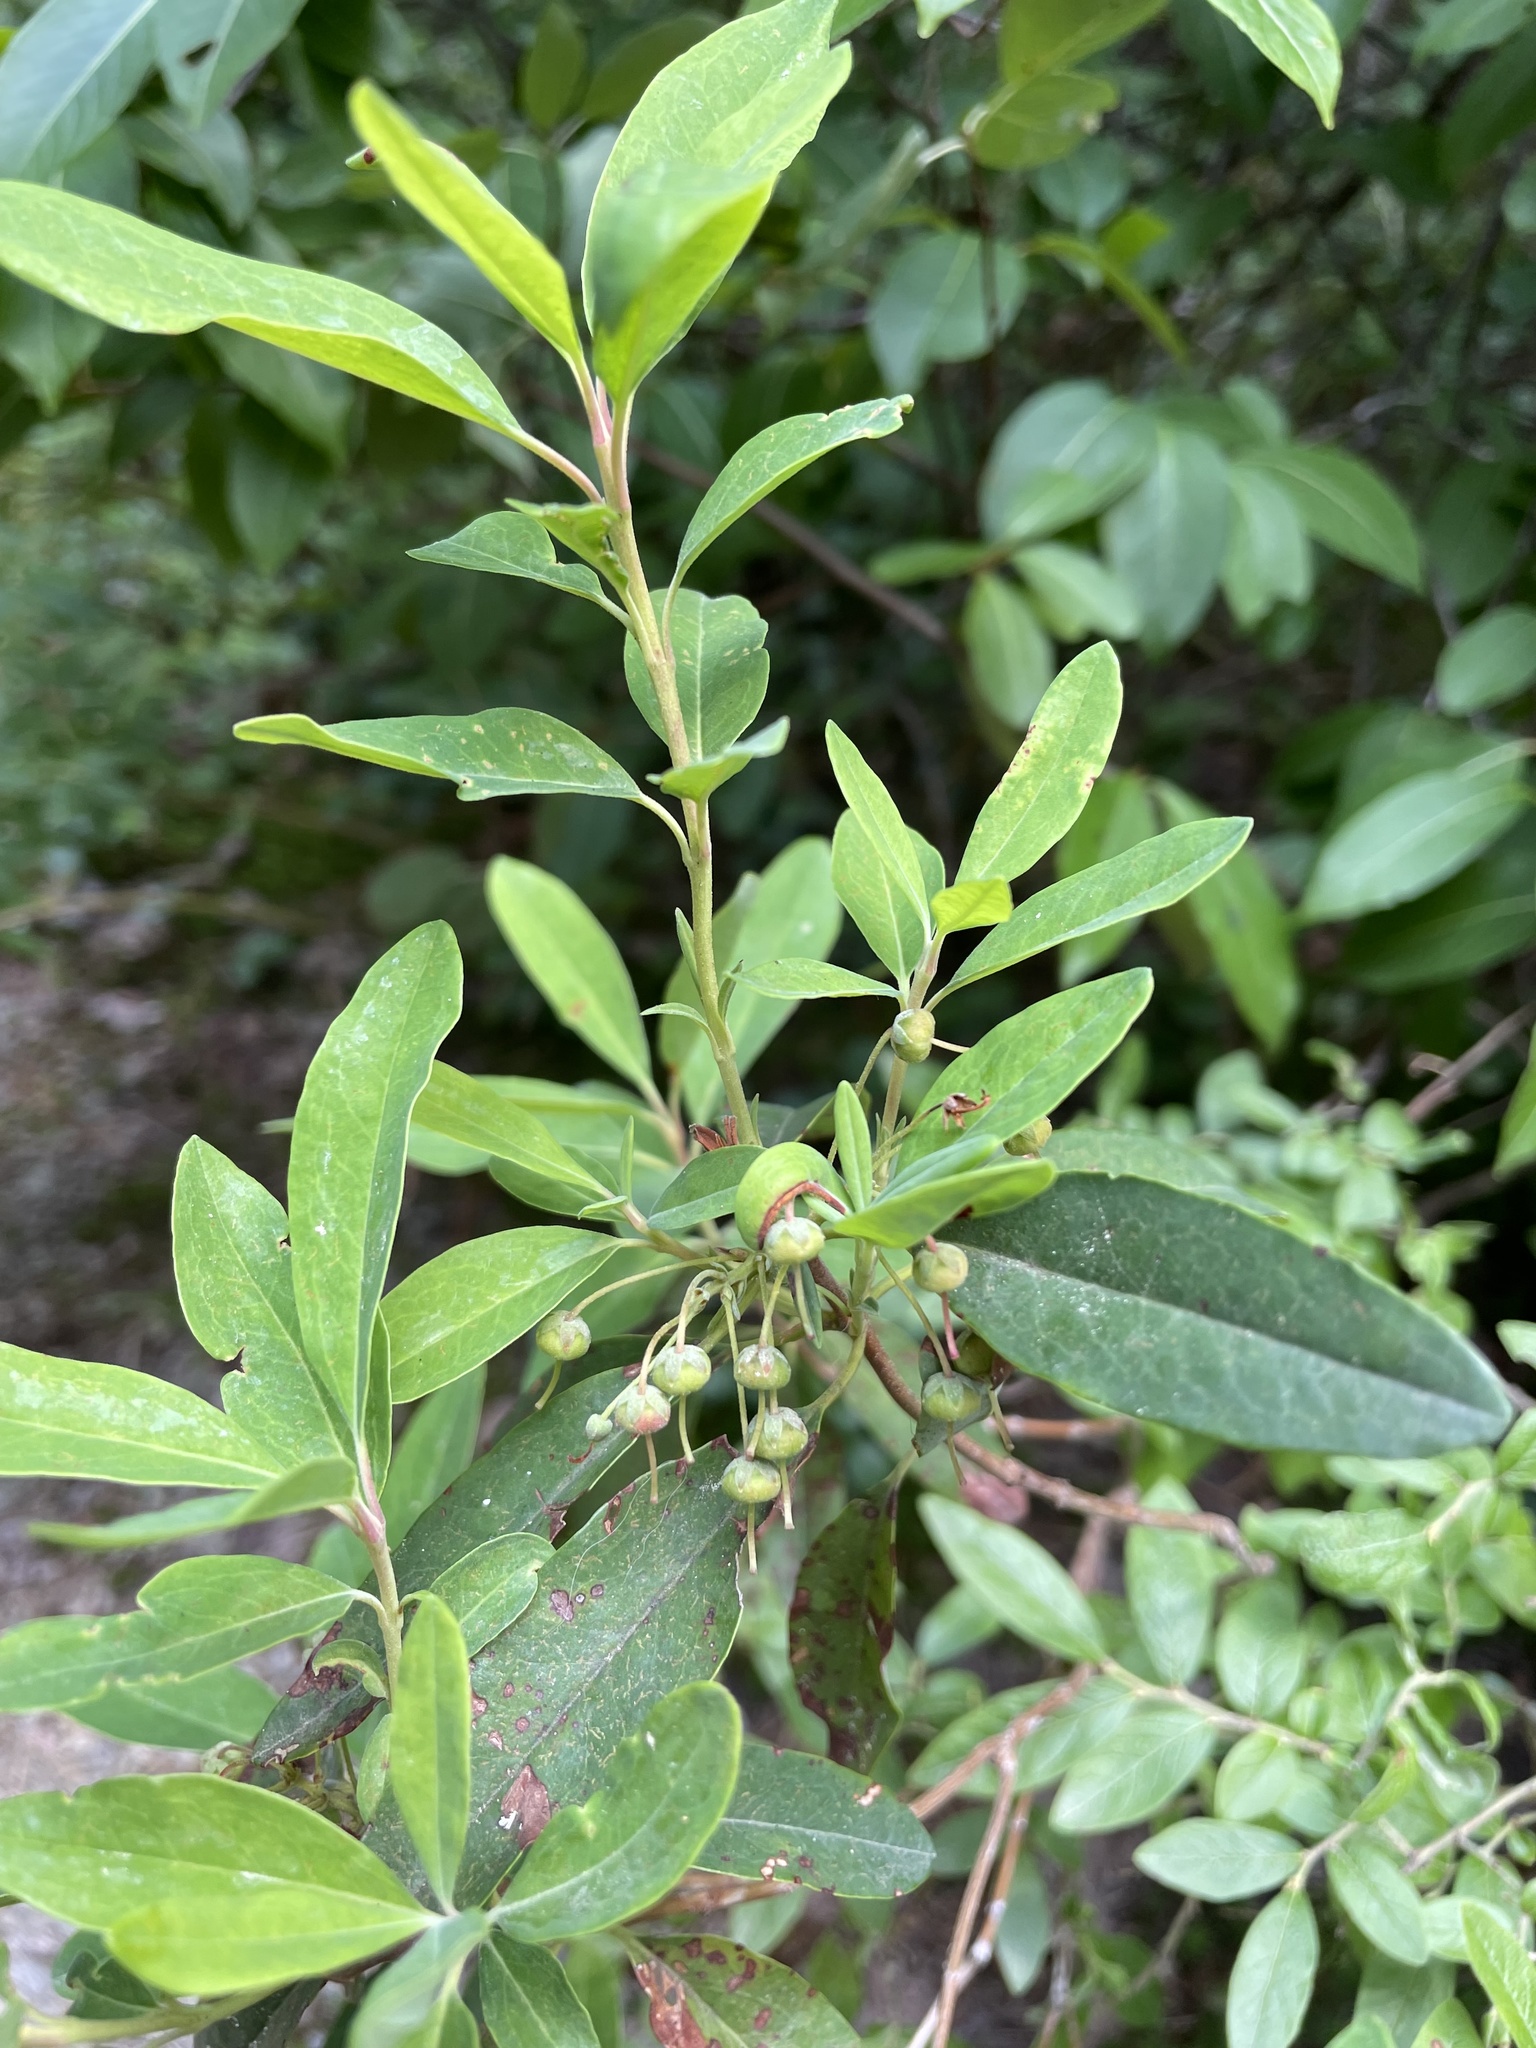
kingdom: Plantae
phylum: Tracheophyta
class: Magnoliopsida
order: Ericales
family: Ericaceae
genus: Kalmia
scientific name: Kalmia angustifolia
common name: Sheep-laurel
